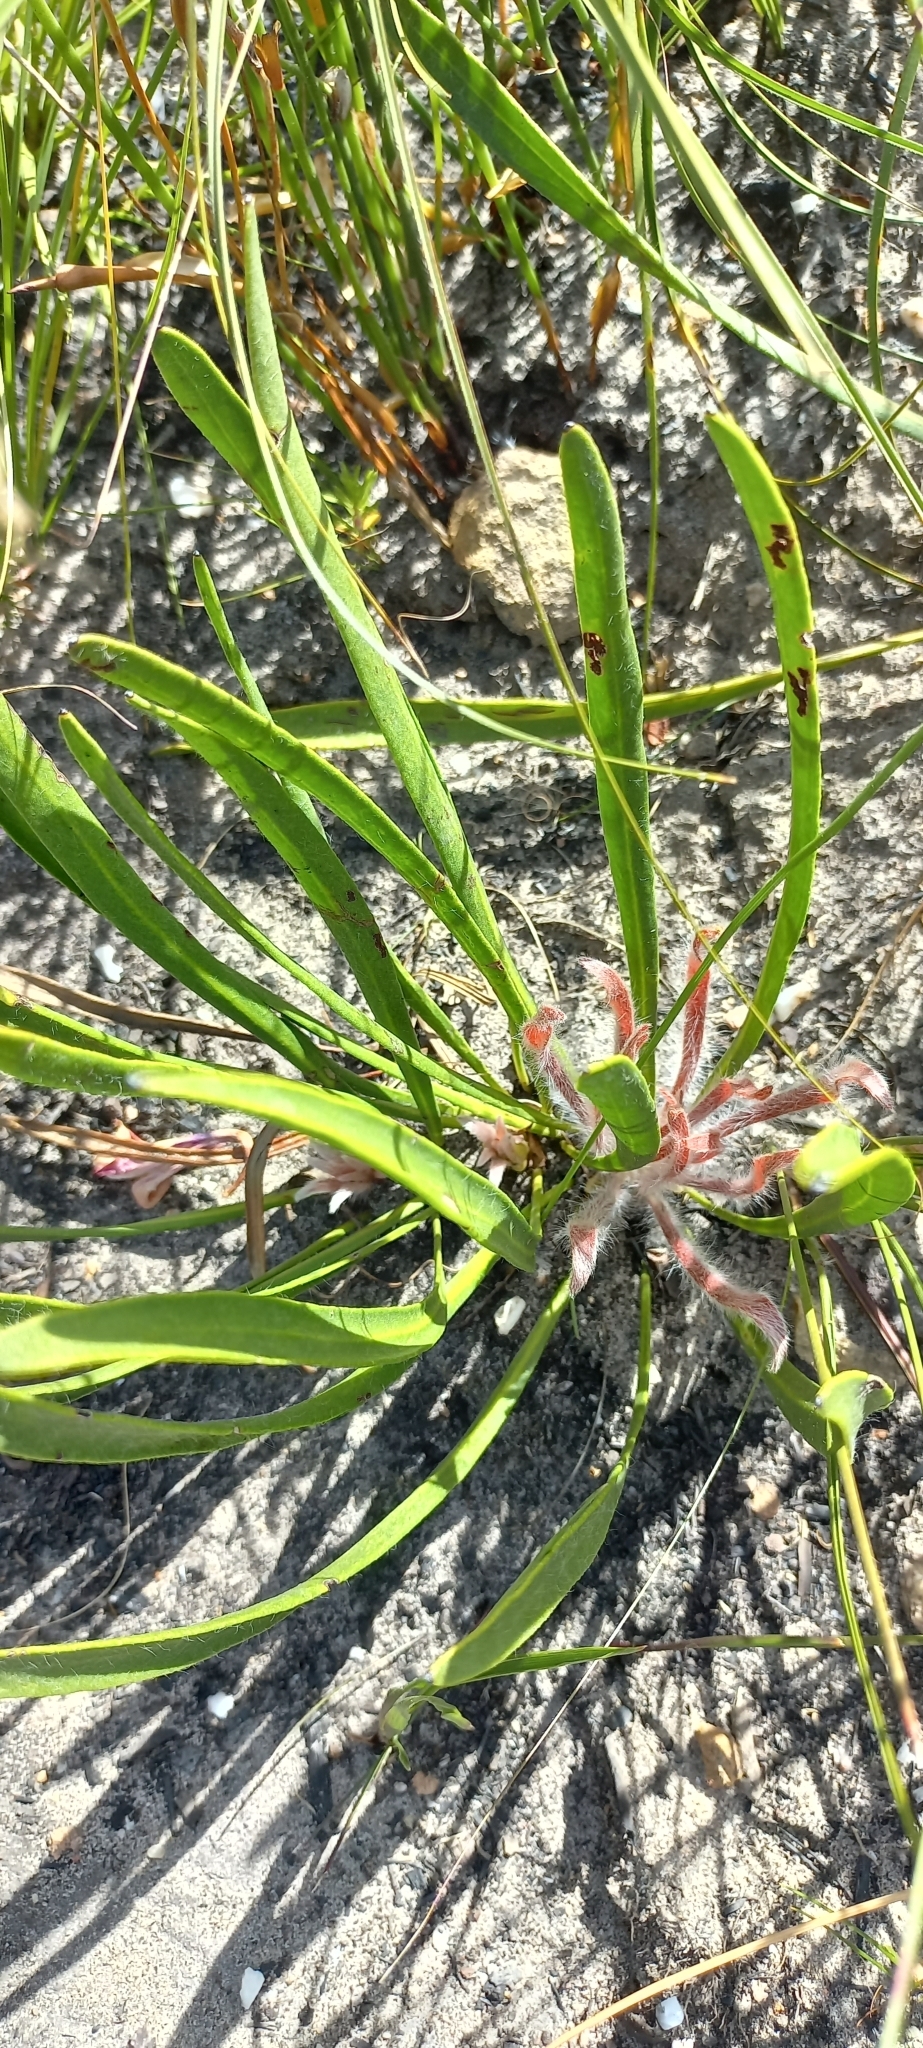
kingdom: Plantae
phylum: Tracheophyta
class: Magnoliopsida
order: Proteales
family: Proteaceae
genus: Protea
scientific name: Protea scabra
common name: Sandpaper-leaf sugarbush
